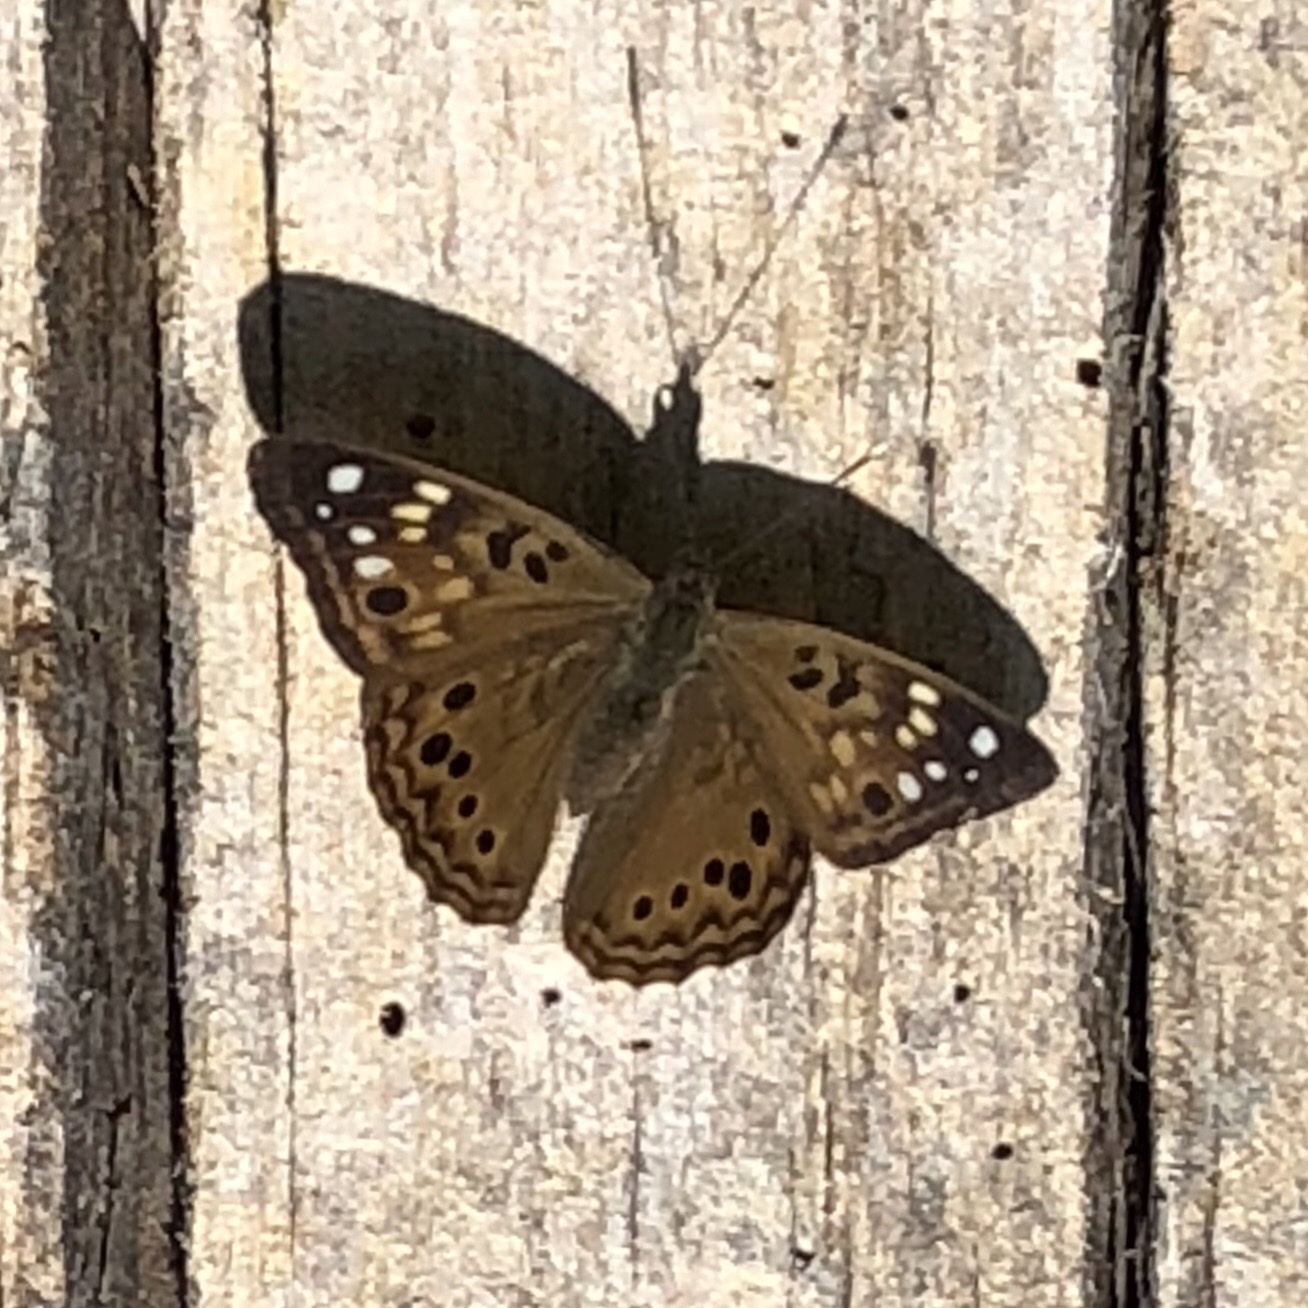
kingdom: Animalia
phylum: Arthropoda
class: Insecta
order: Lepidoptera
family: Nymphalidae
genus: Asterocampa
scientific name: Asterocampa celtis
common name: Hackberry emperor
